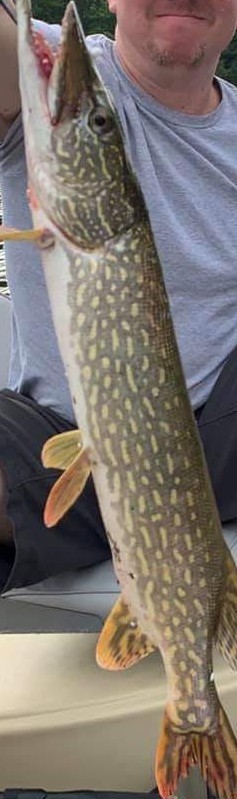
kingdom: Animalia
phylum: Chordata
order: Esociformes
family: Esocidae
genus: Esox
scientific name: Esox lucius
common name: Northern pike
